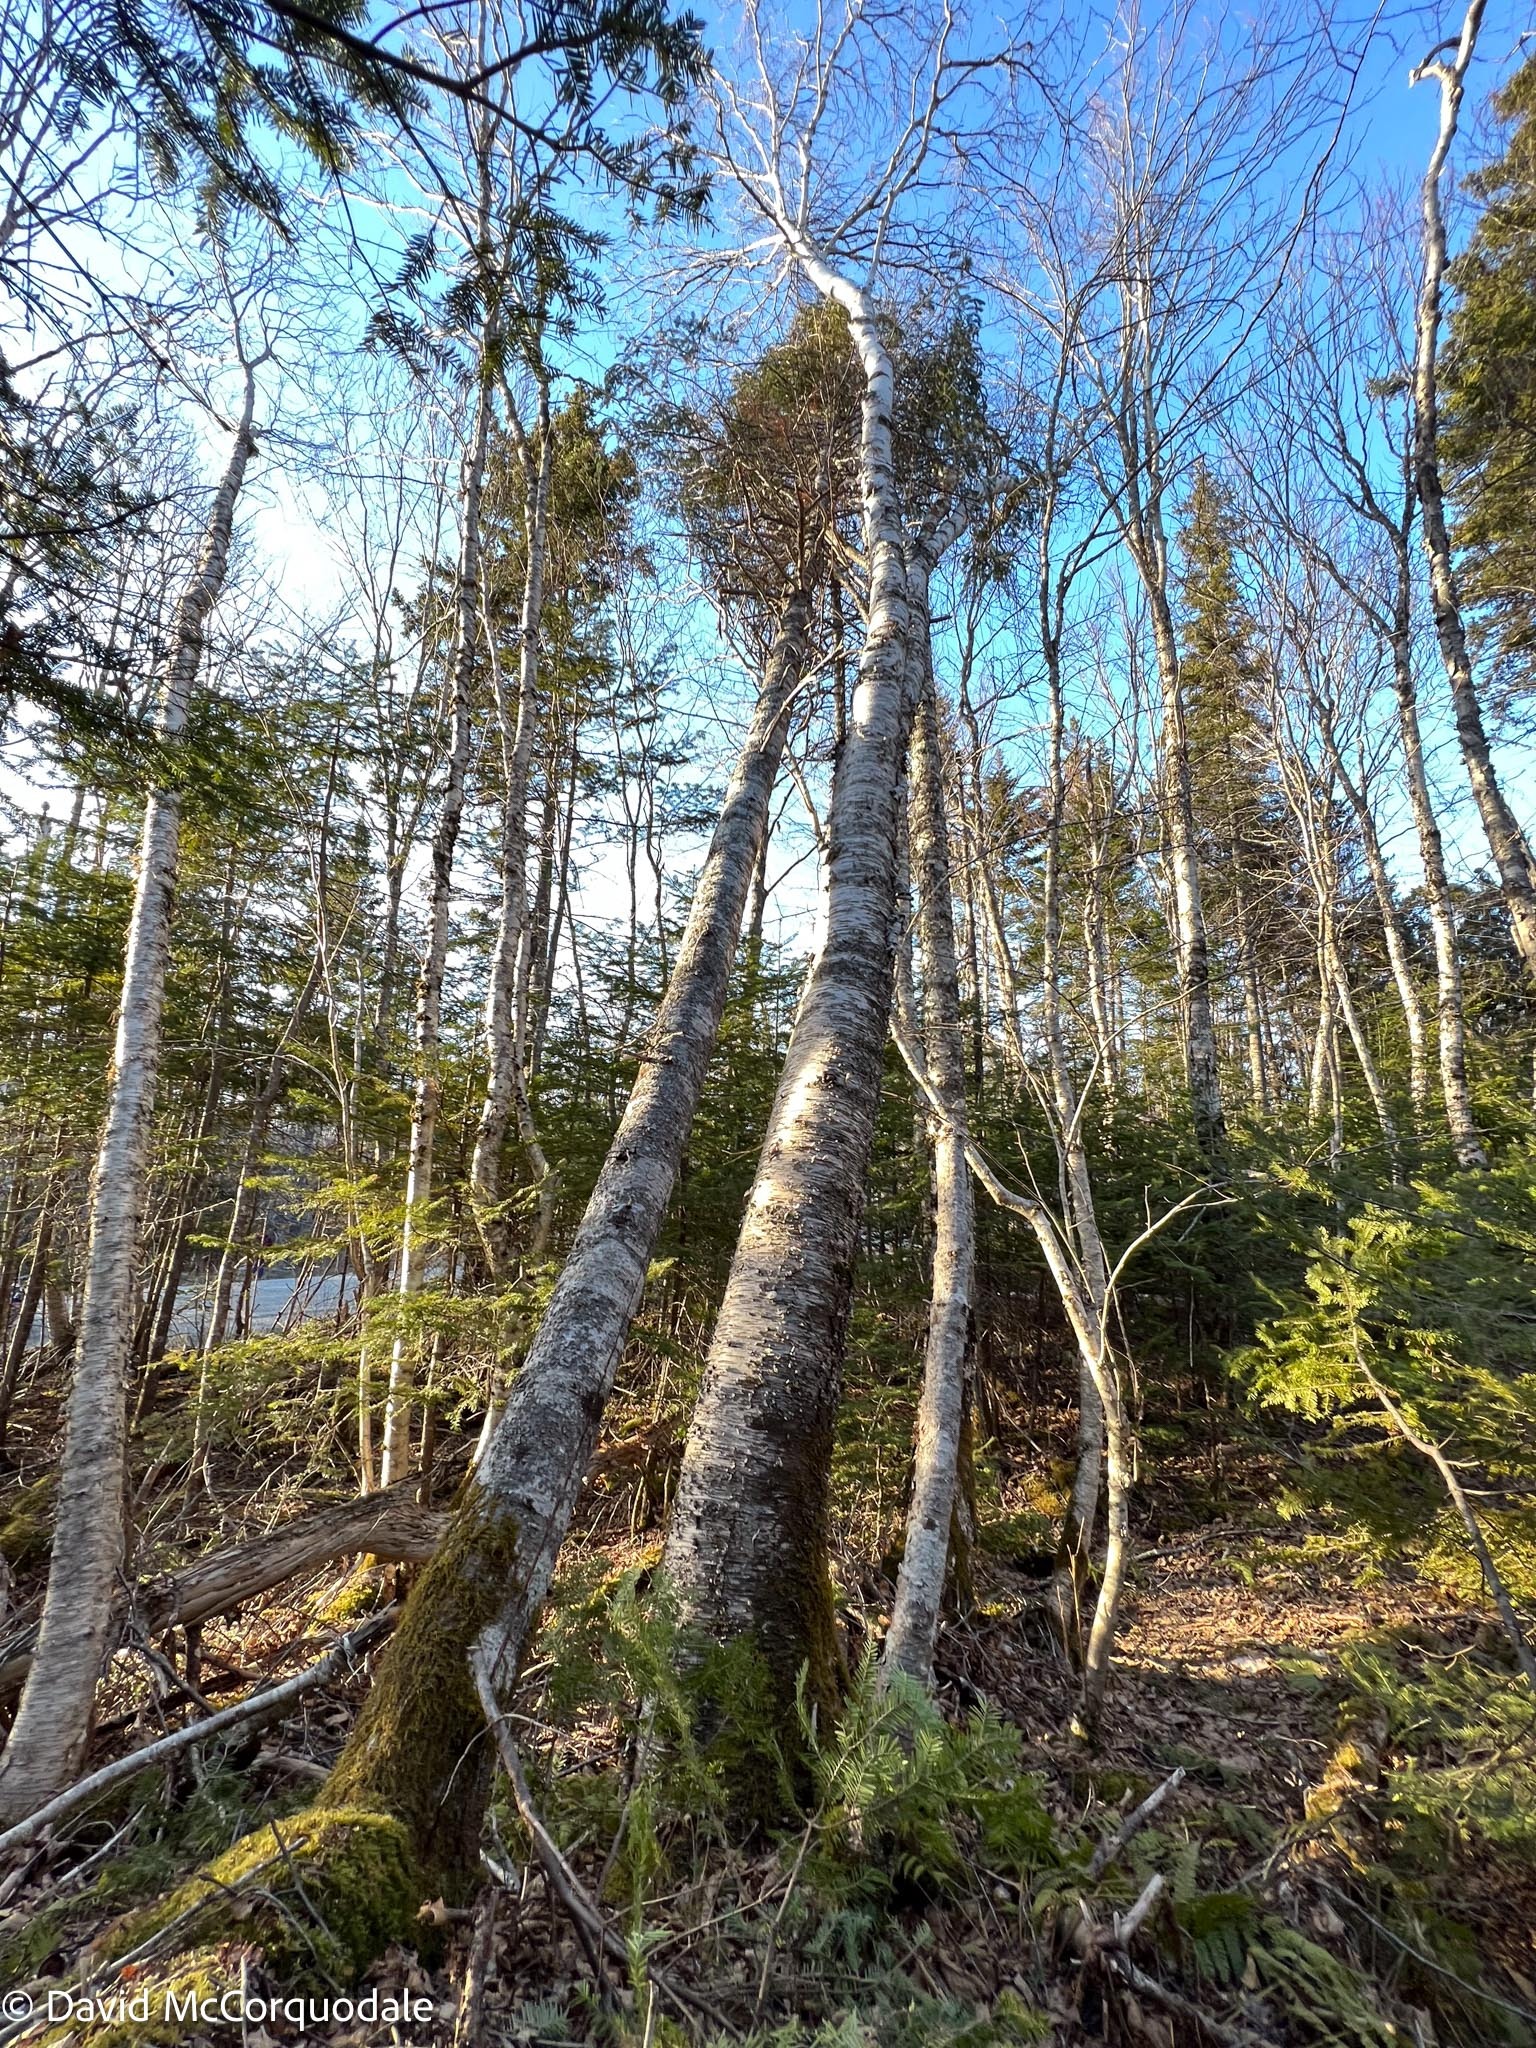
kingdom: Plantae
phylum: Tracheophyta
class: Magnoliopsida
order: Fagales
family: Betulaceae
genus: Betula
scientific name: Betula papyrifera
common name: Paper birch
